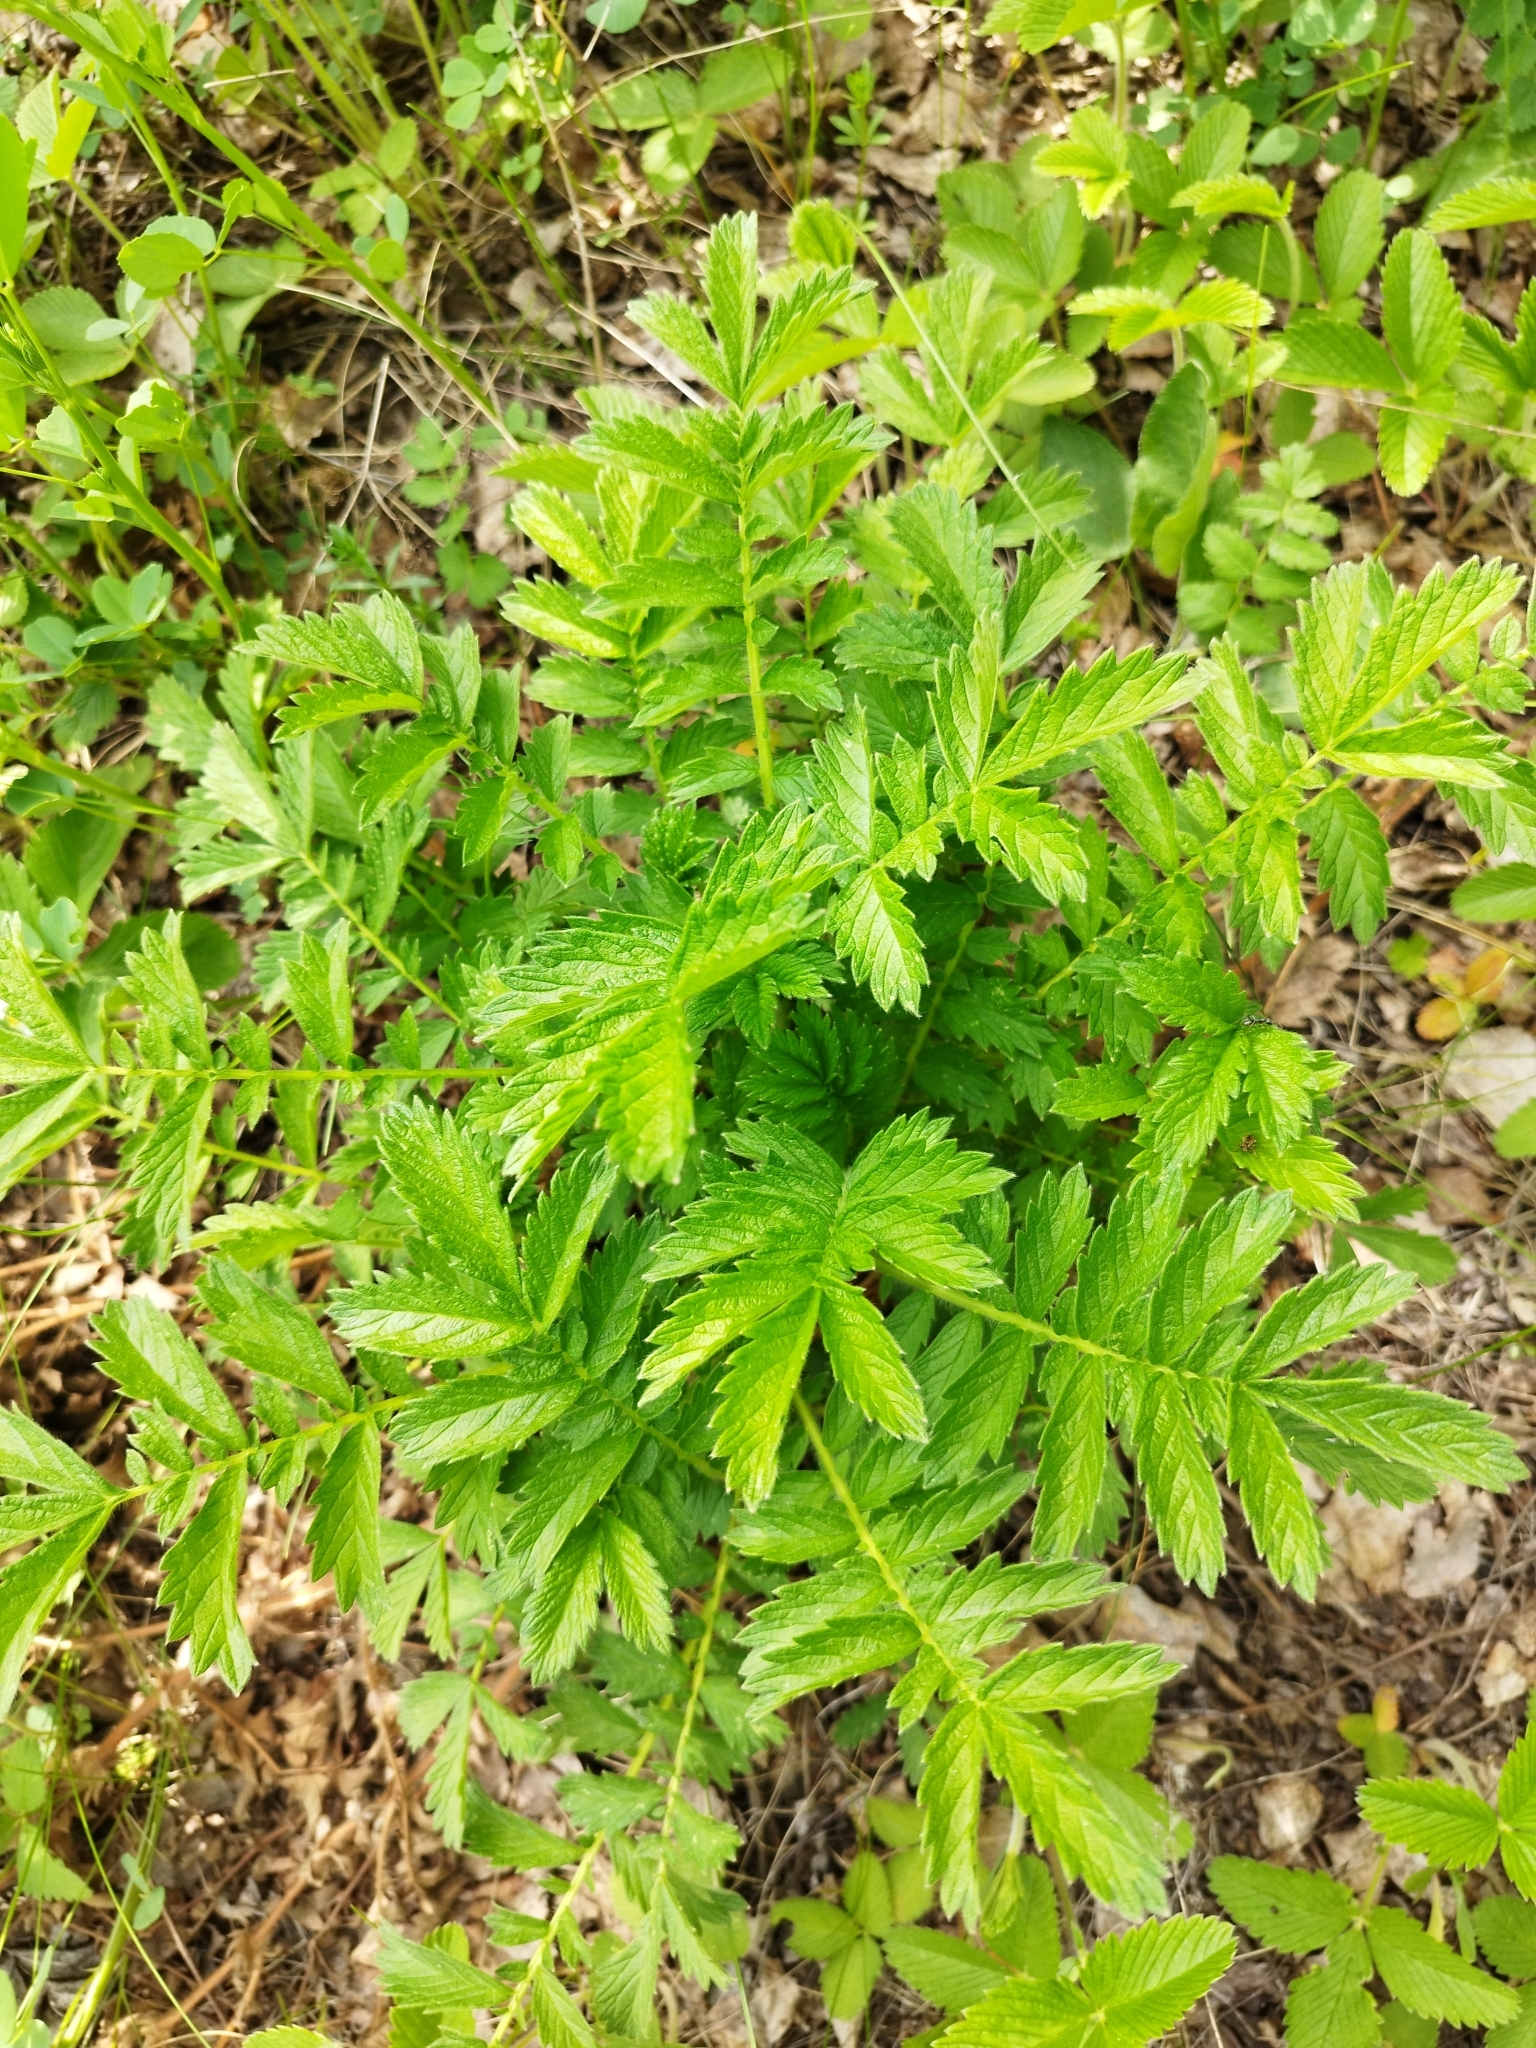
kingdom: Plantae
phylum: Tracheophyta
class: Magnoliopsida
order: Rosales
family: Rosaceae
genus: Agrimonia
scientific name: Agrimonia eupatoria
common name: Agrimony
